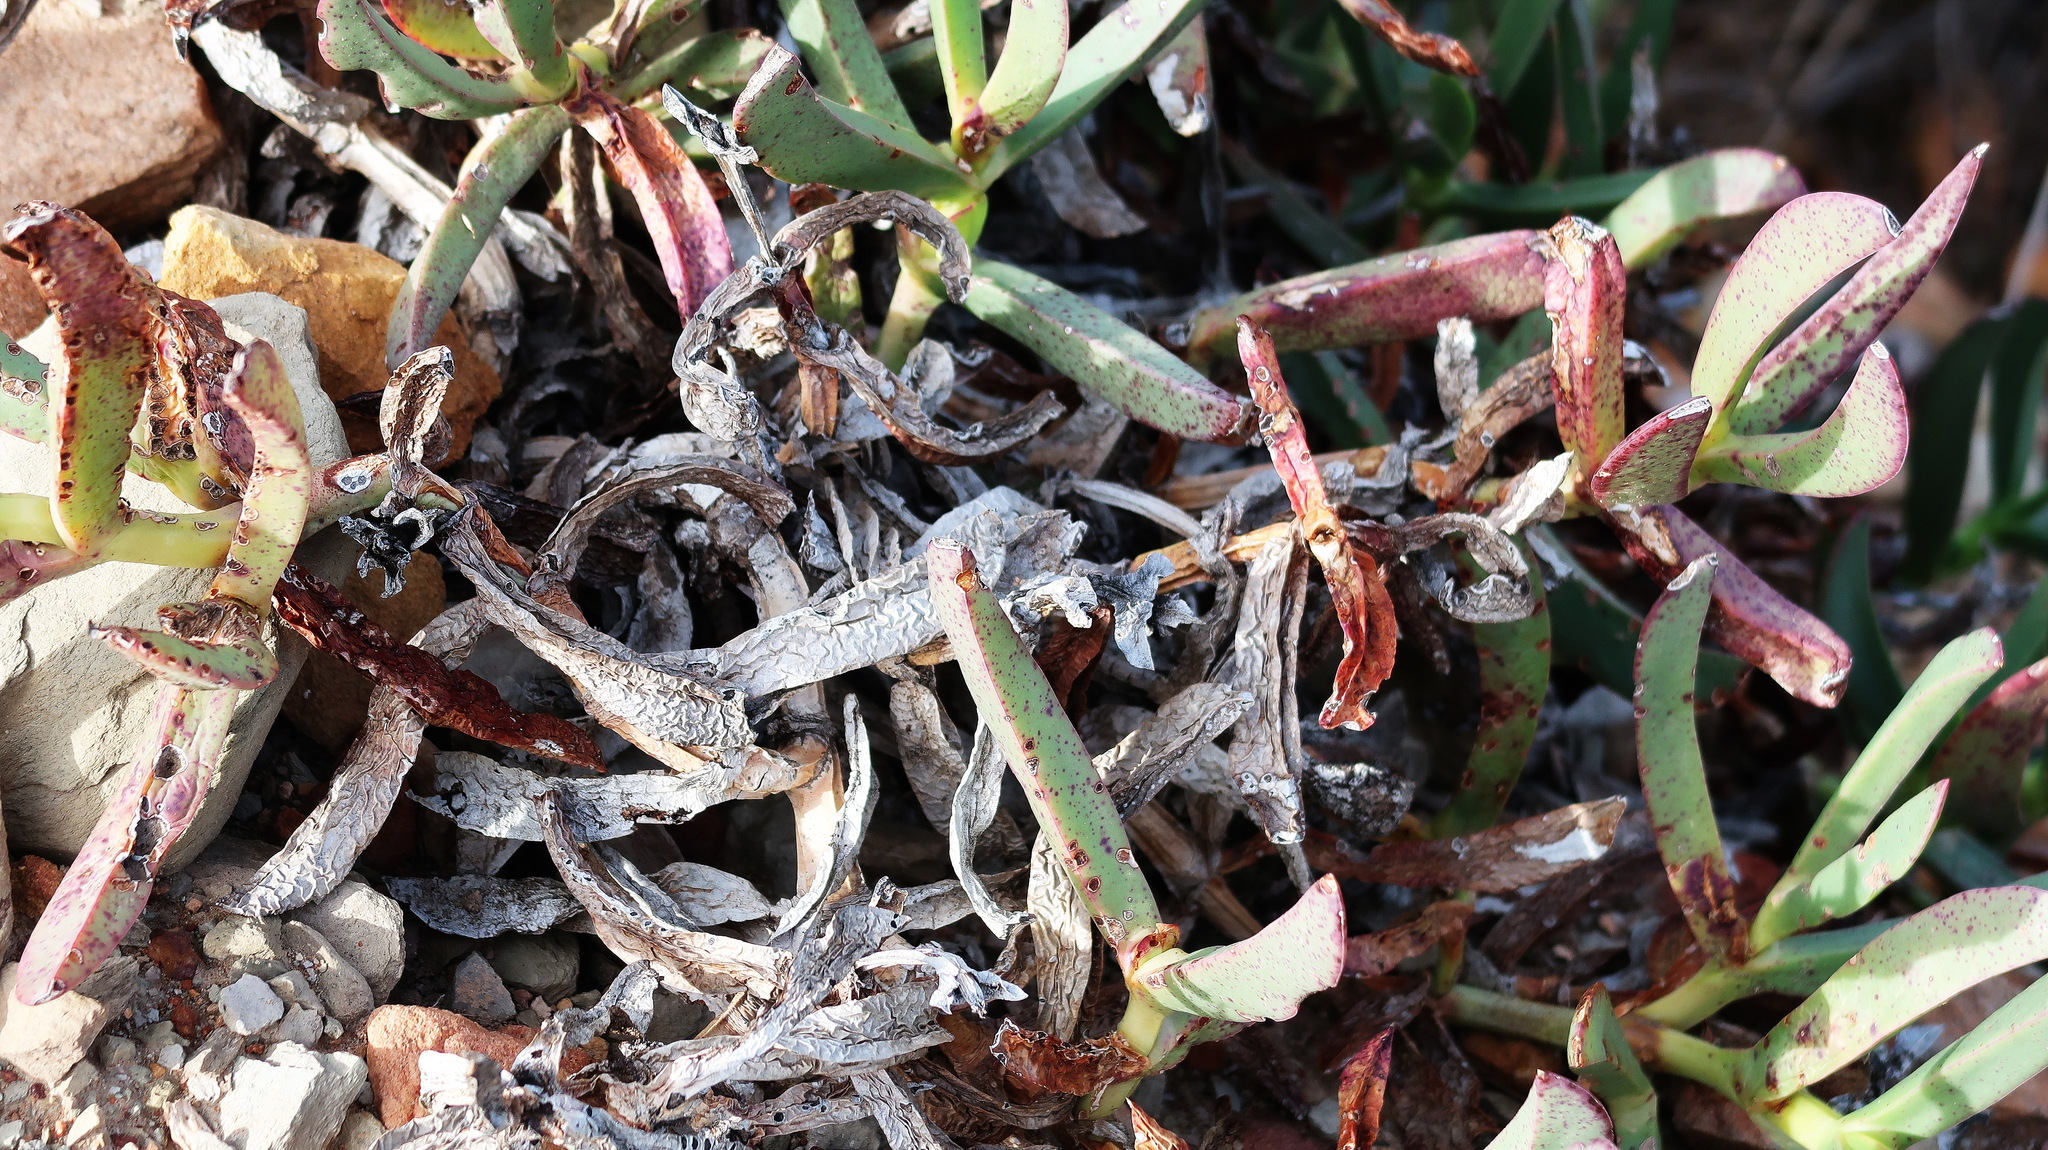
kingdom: Plantae
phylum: Tracheophyta
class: Magnoliopsida
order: Caryophyllales
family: Aizoaceae
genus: Carpobrotus
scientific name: Carpobrotus mellei
